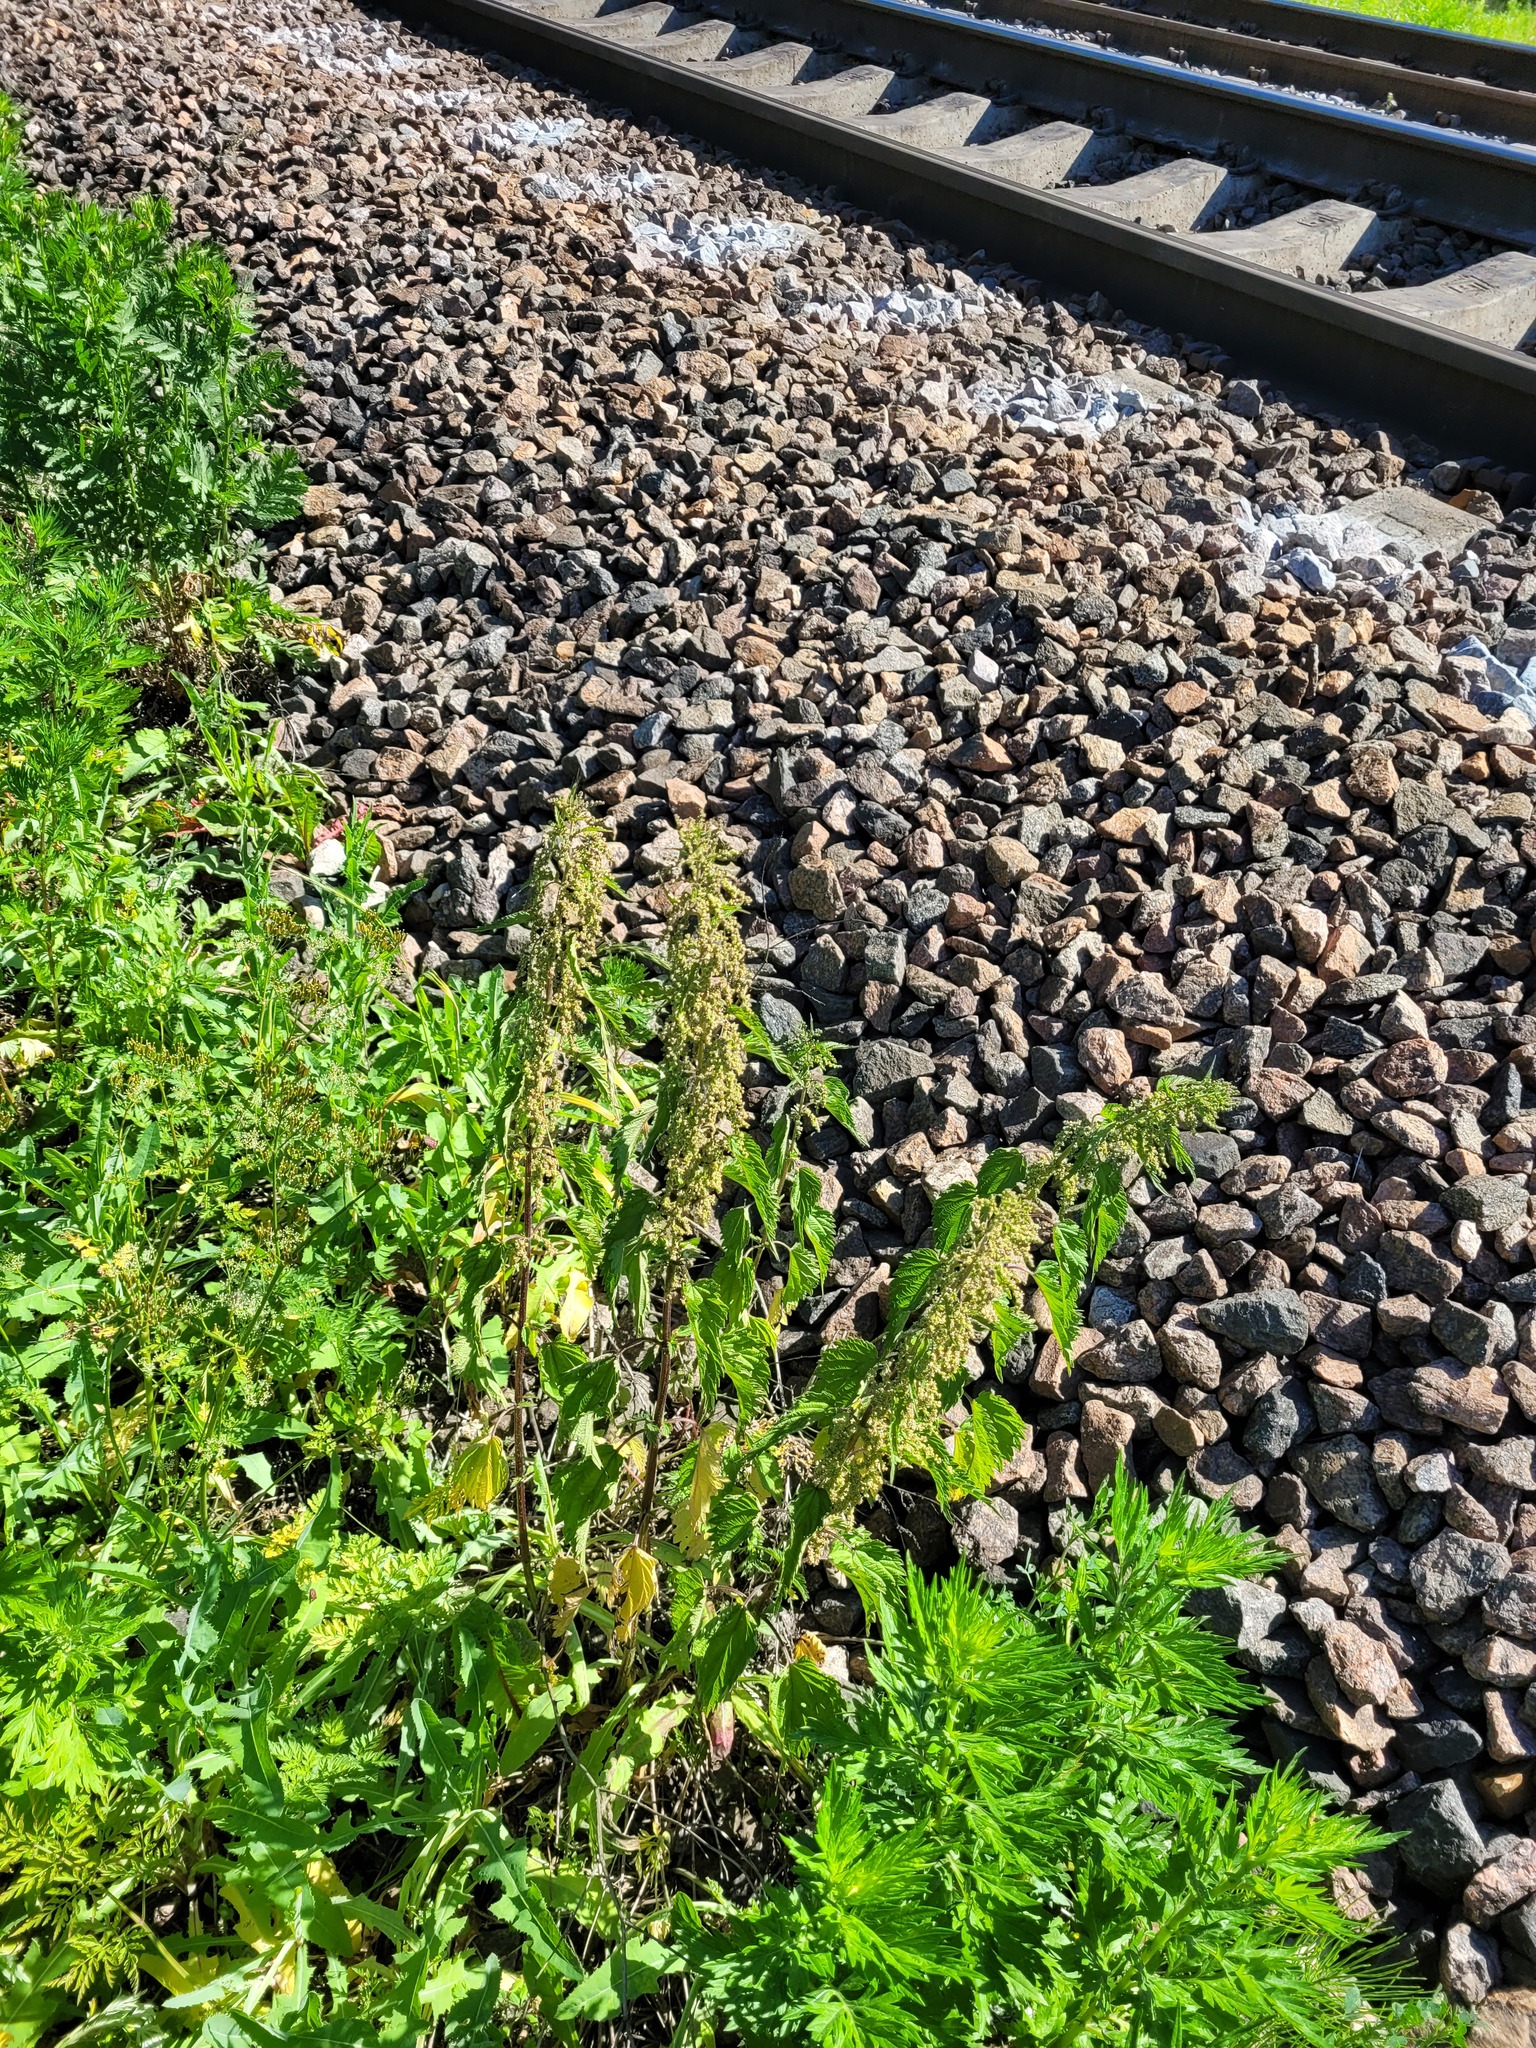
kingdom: Plantae
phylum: Tracheophyta
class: Magnoliopsida
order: Rosales
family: Urticaceae
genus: Urtica
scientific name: Urtica dioica
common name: Common nettle
